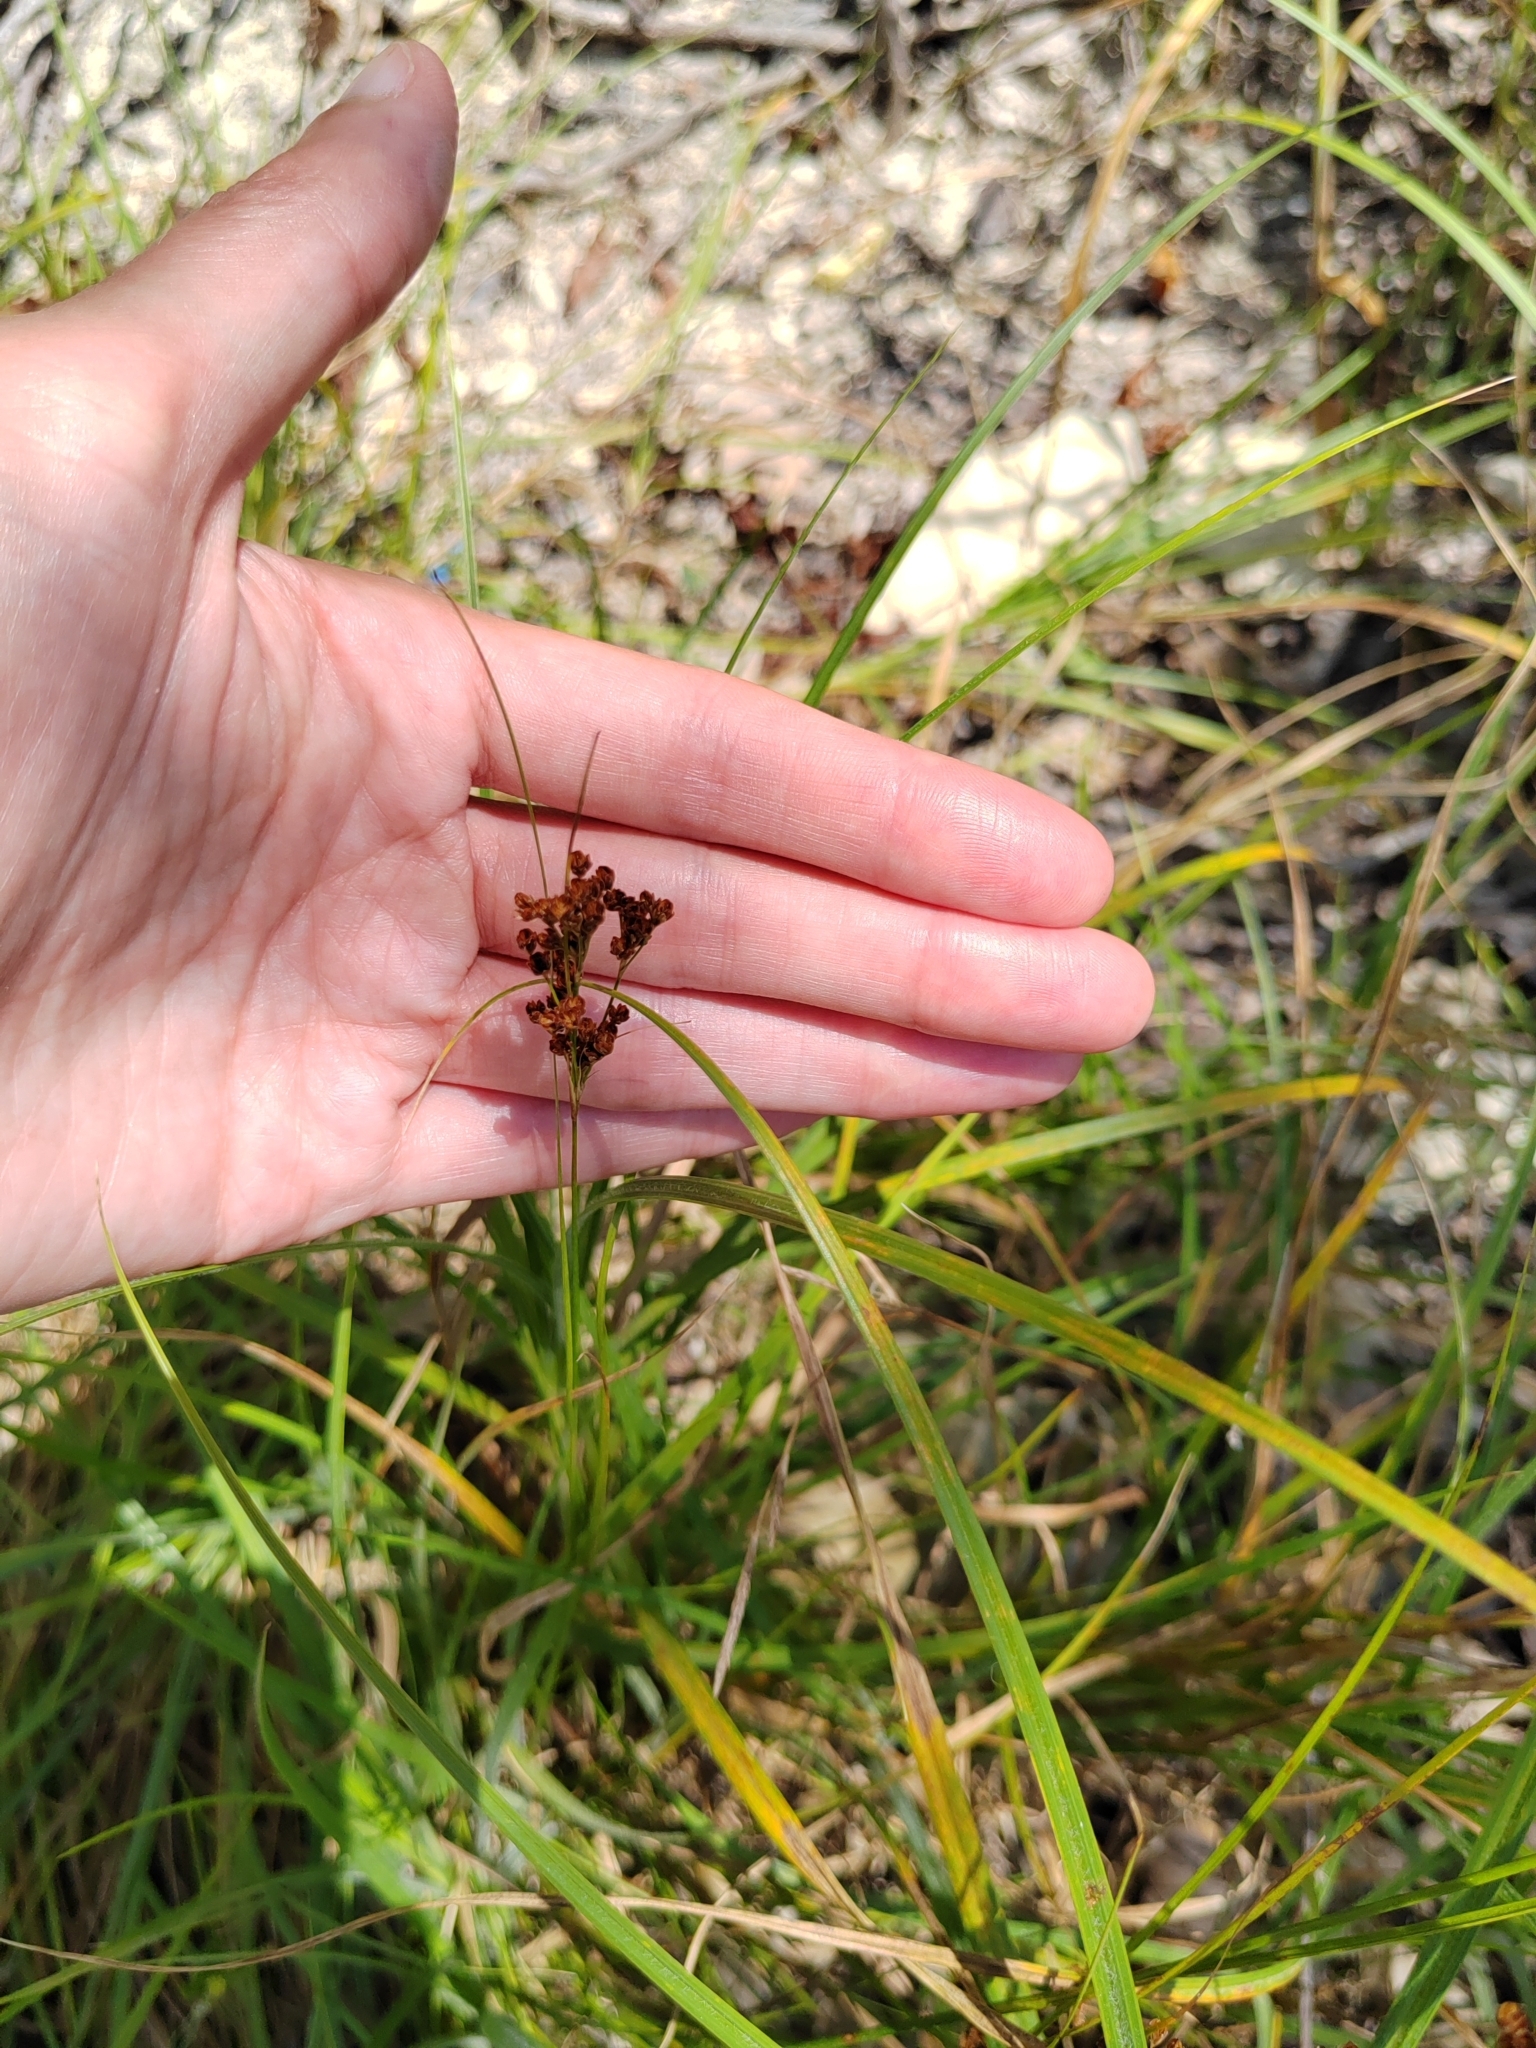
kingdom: Plantae
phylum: Tracheophyta
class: Liliopsida
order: Poales
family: Juncaceae
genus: Juncus
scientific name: Juncus compressus
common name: Round-fruited rush
